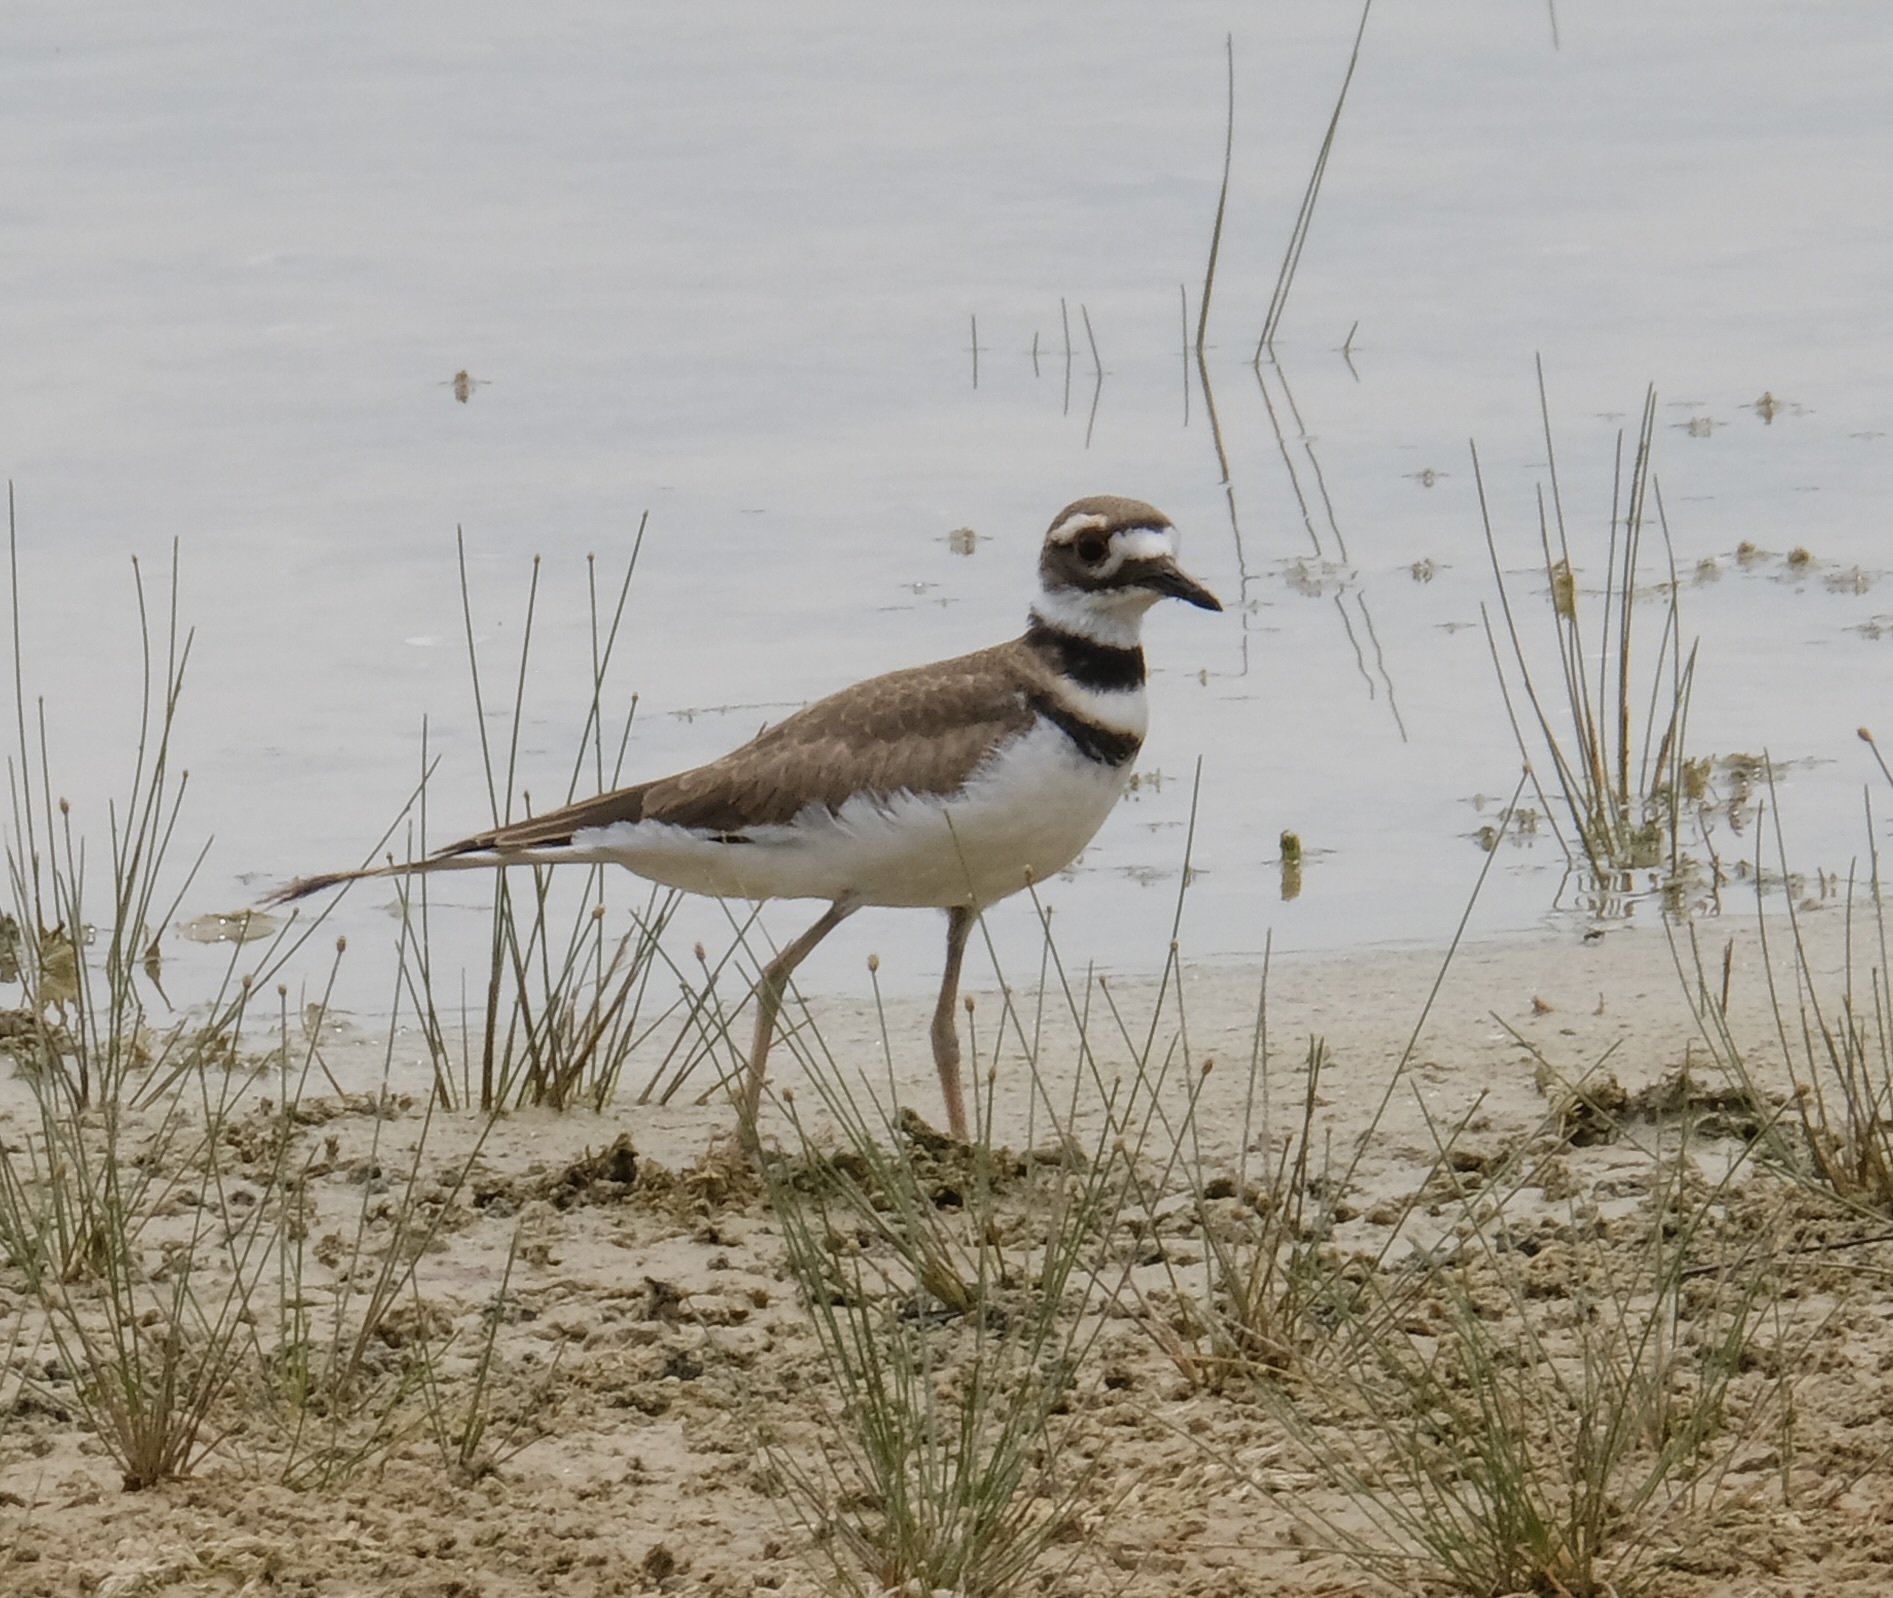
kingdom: Animalia
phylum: Chordata
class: Aves
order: Charadriiformes
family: Charadriidae
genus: Charadrius
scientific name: Charadrius vociferus
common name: Killdeer
